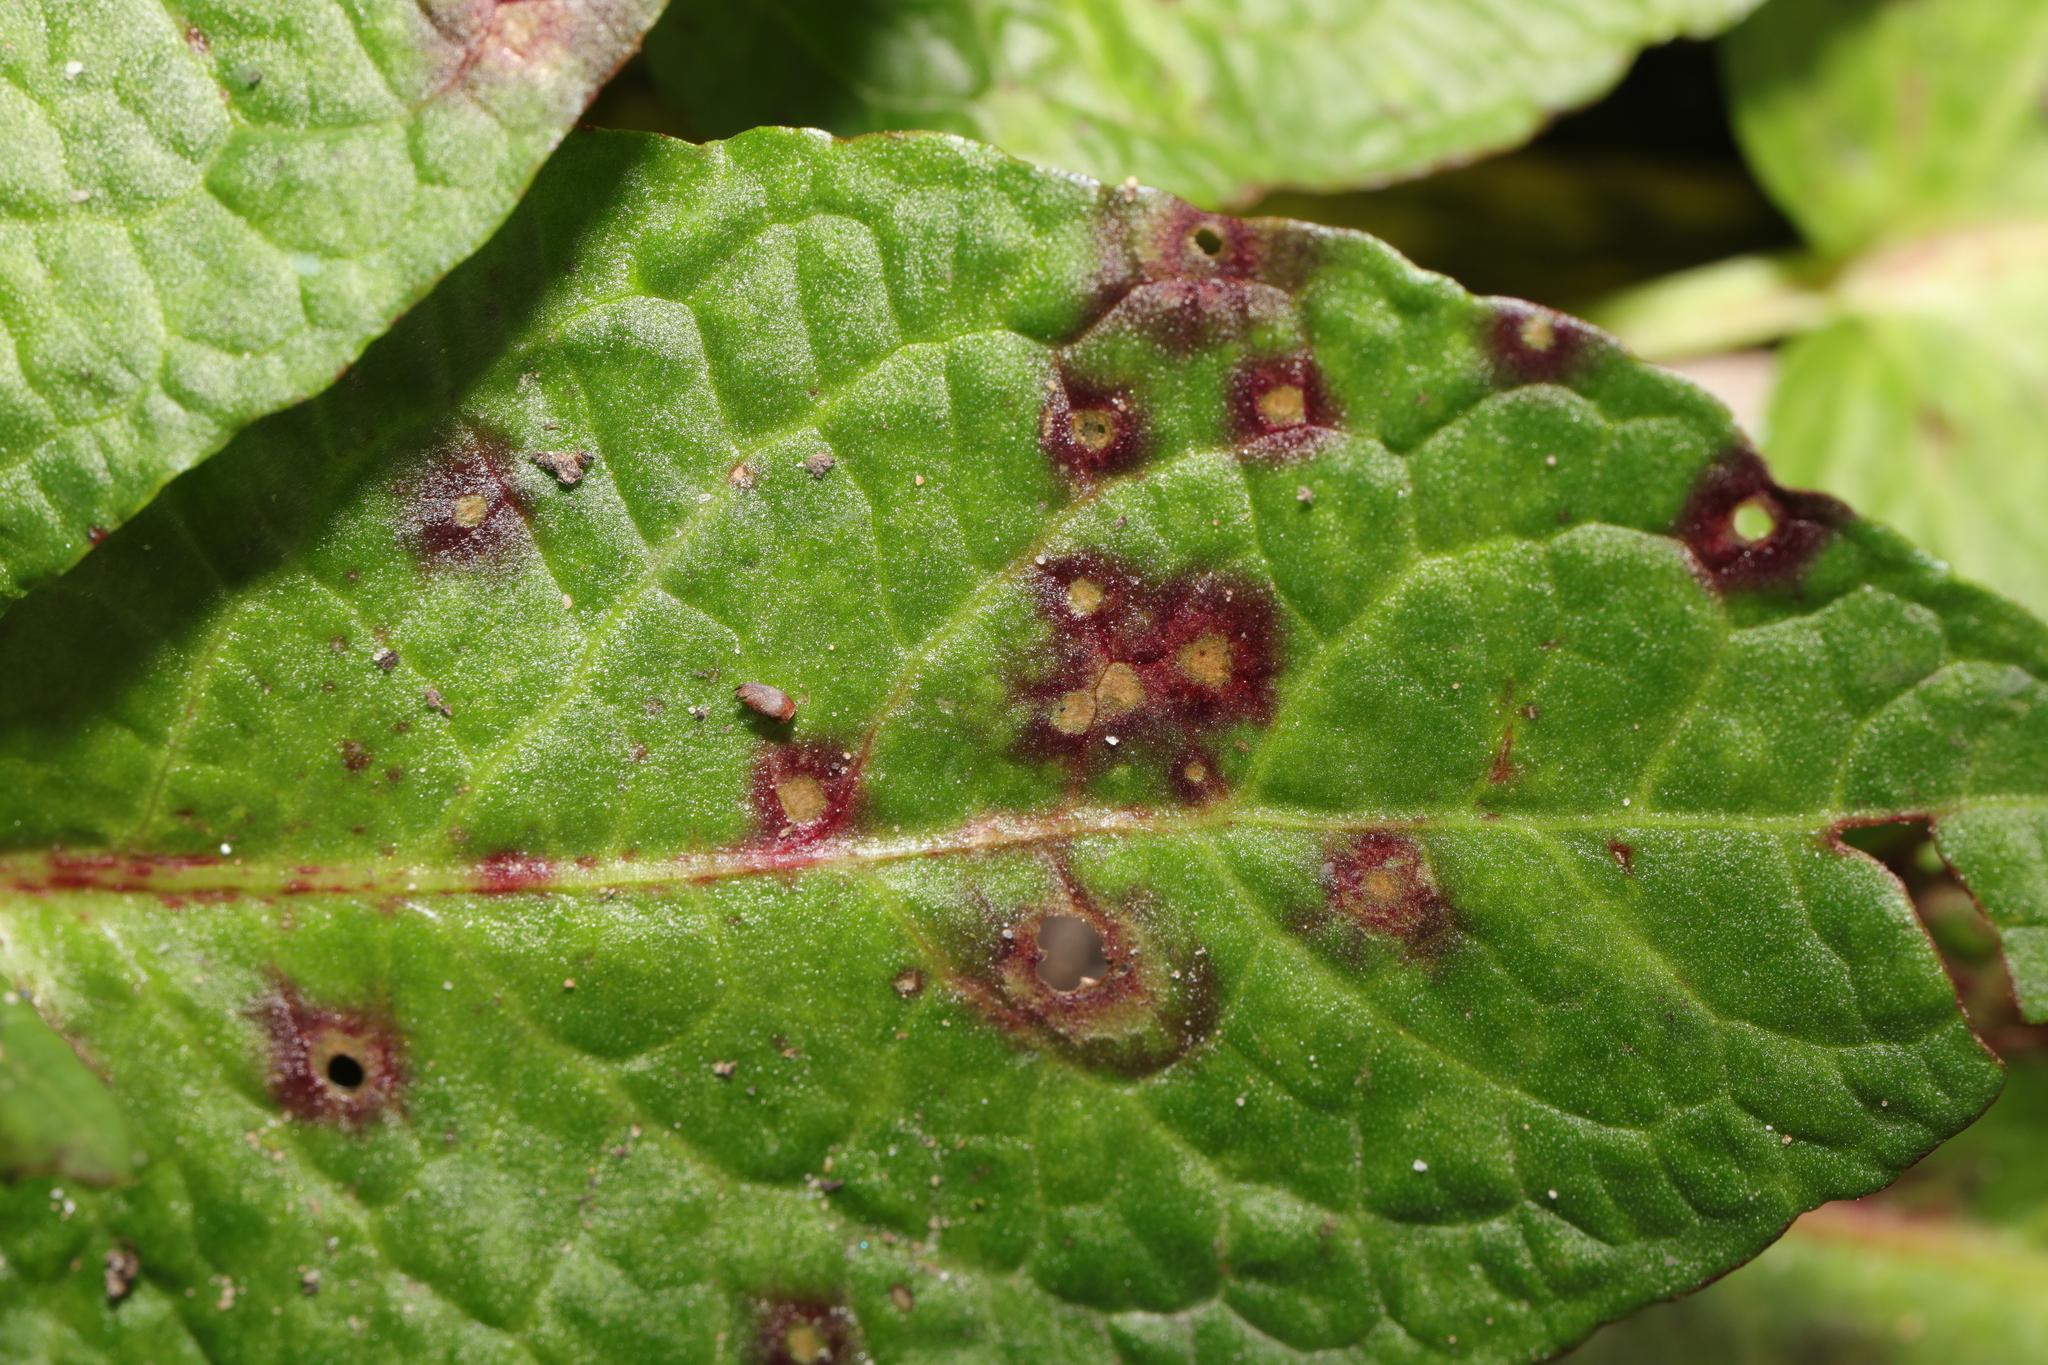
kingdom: Fungi
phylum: Ascomycota
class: Dothideomycetes
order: Mycosphaerellales
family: Mycosphaerellaceae
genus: Ramularia
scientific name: Ramularia rubella
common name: Red dock spot
